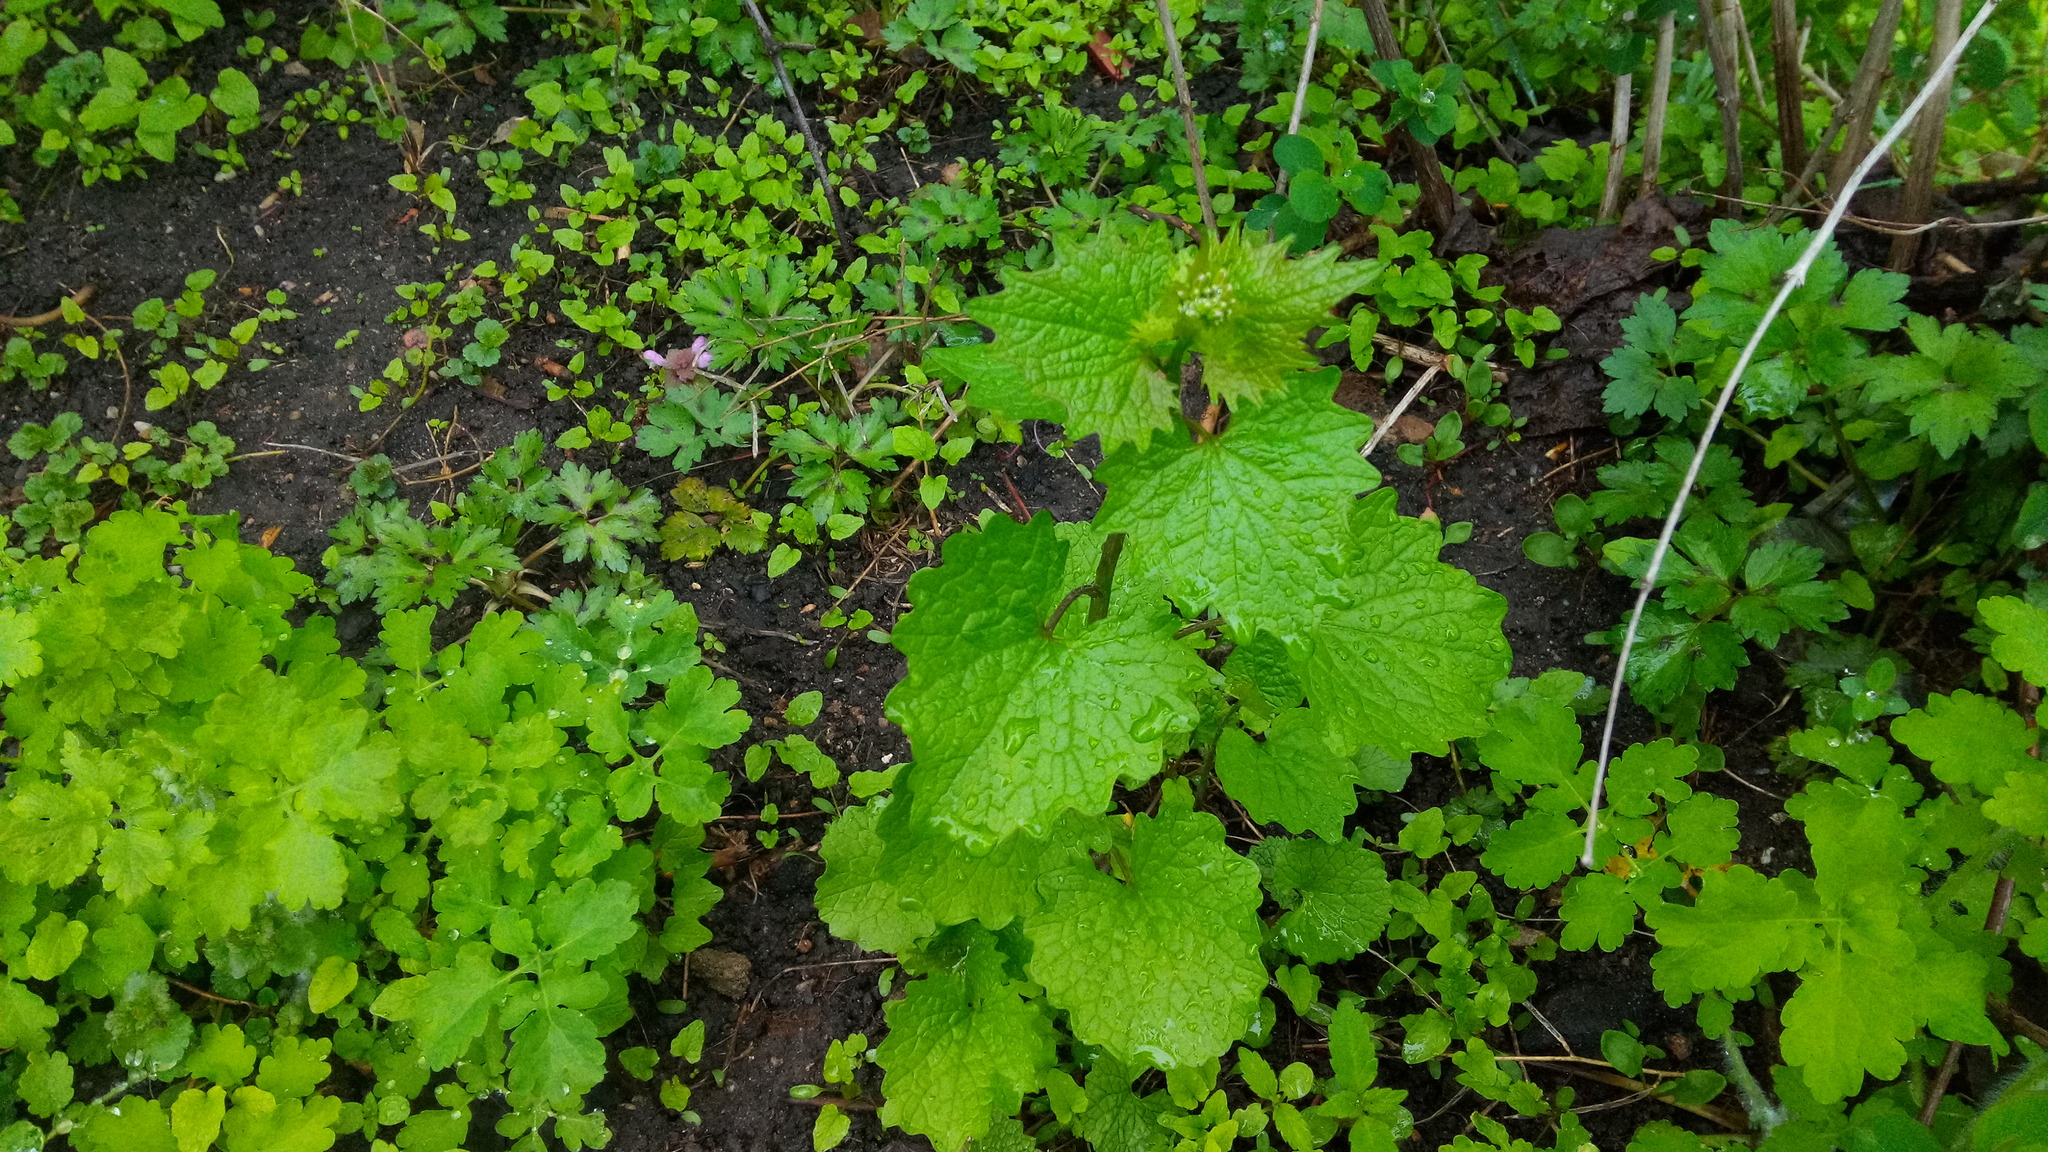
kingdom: Plantae
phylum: Tracheophyta
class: Magnoliopsida
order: Brassicales
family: Brassicaceae
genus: Alliaria
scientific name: Alliaria petiolata
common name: Garlic mustard
